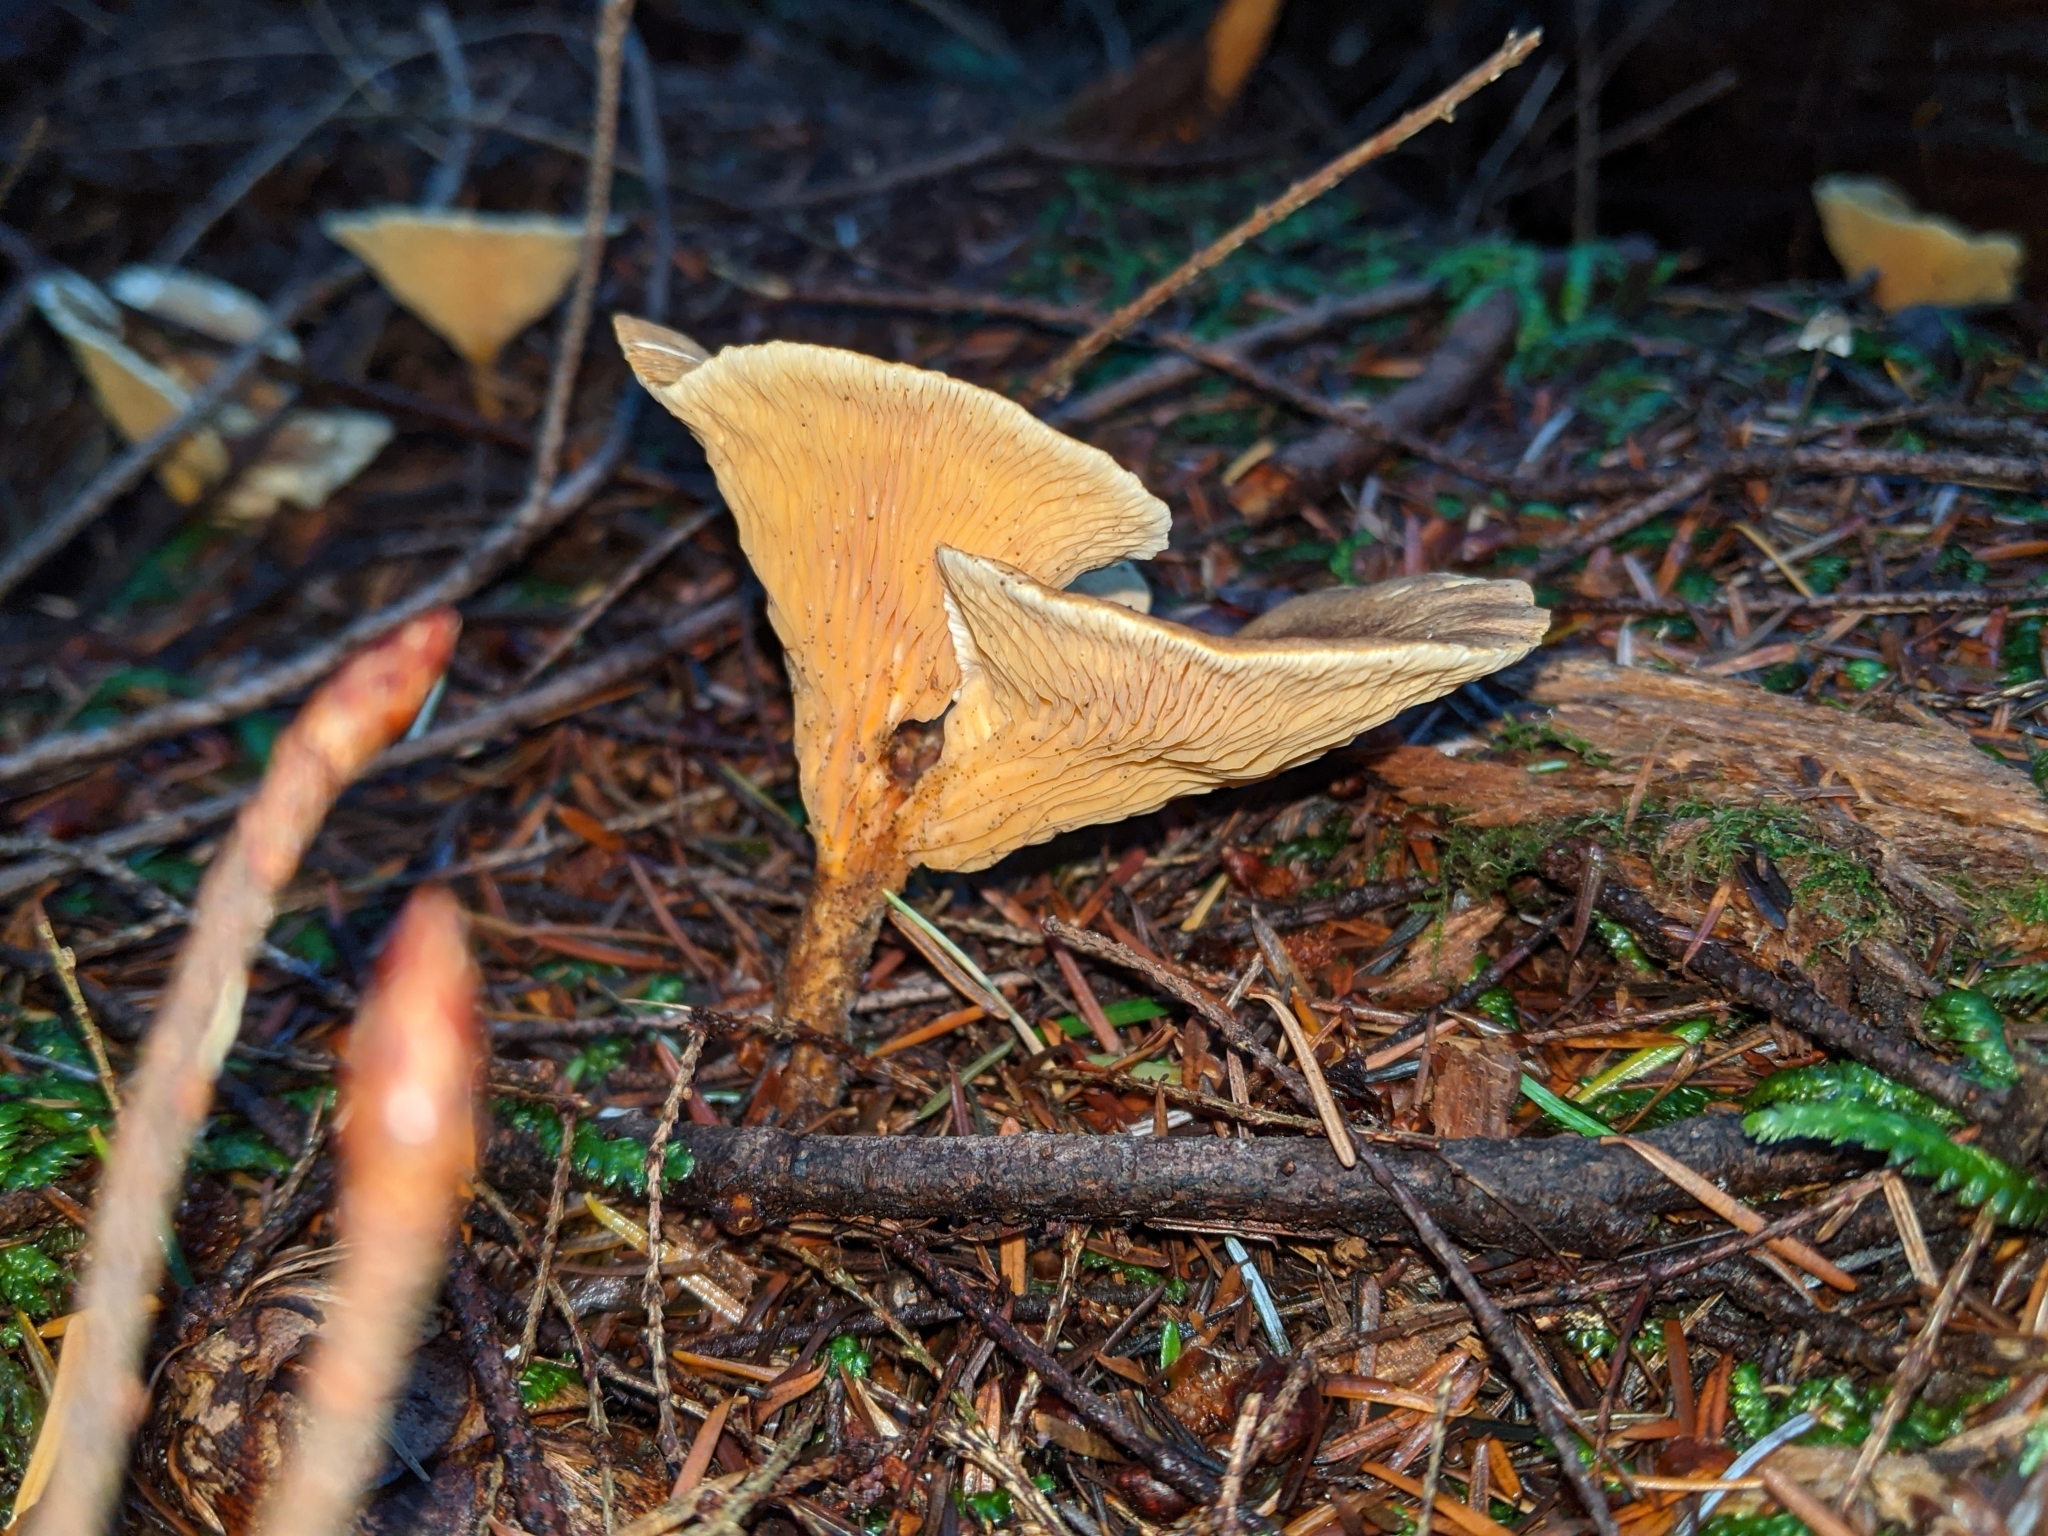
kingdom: Fungi
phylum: Basidiomycota
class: Agaricomycetes
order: Boletales
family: Hygrophoropsidaceae
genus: Hygrophoropsis
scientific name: Hygrophoropsis aurantiaca
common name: False chanterelle
